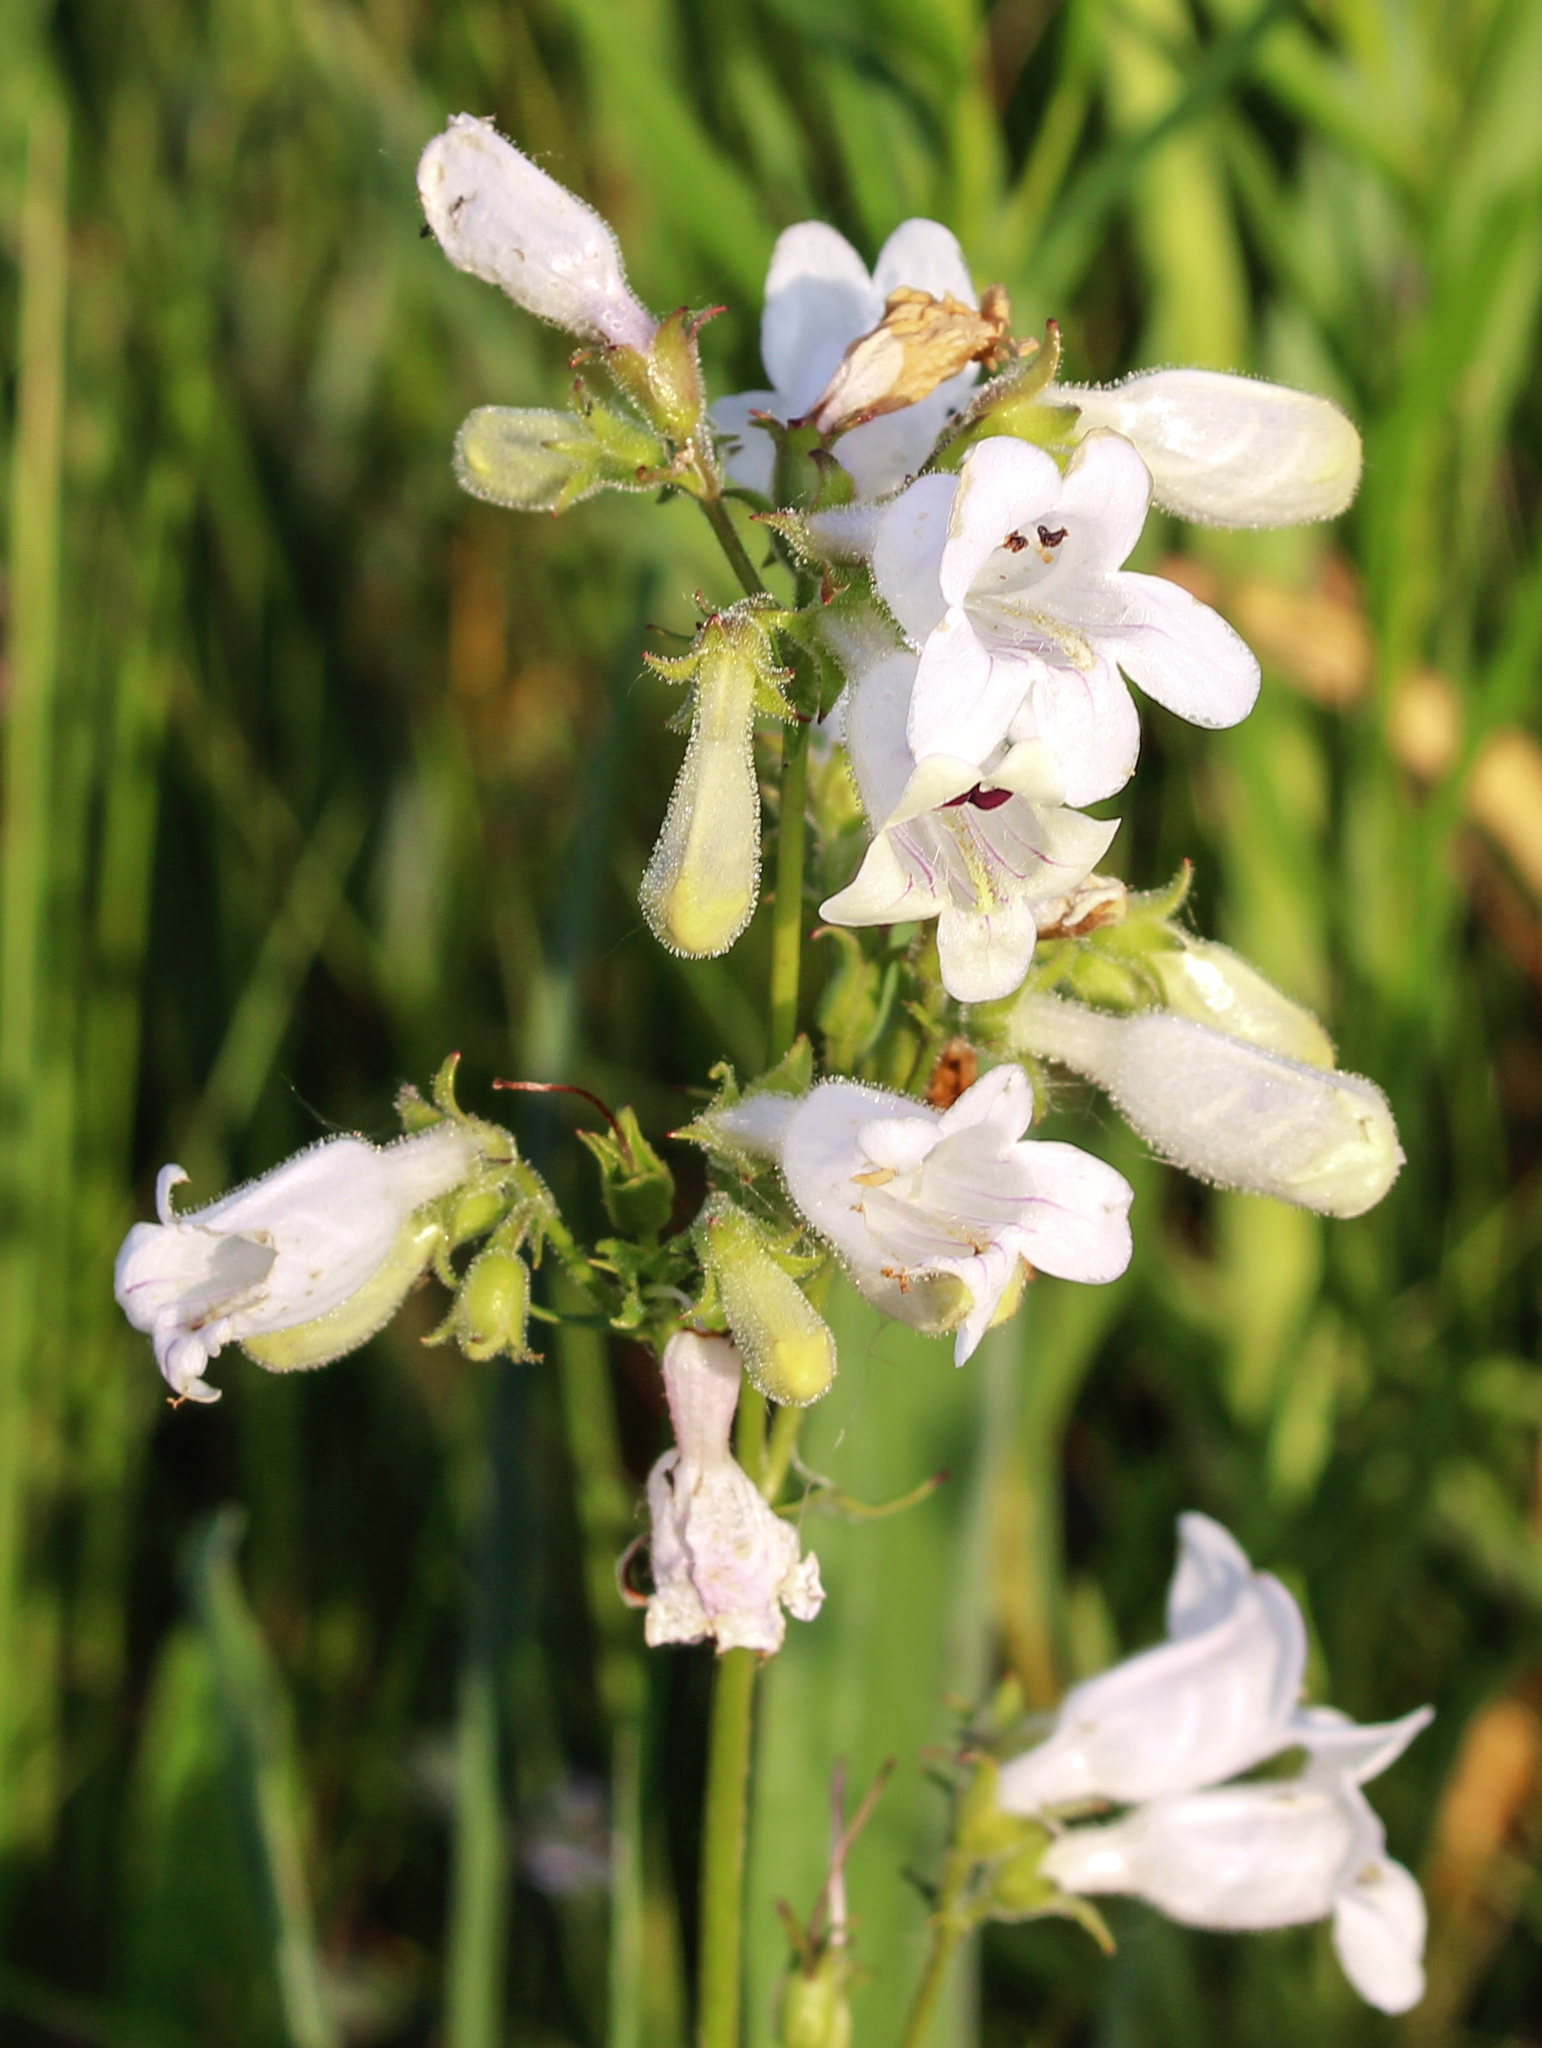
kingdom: Plantae
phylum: Tracheophyta
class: Magnoliopsida
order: Lamiales
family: Plantaginaceae
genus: Penstemon
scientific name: Penstemon digitalis
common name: Foxglove beardtongue
